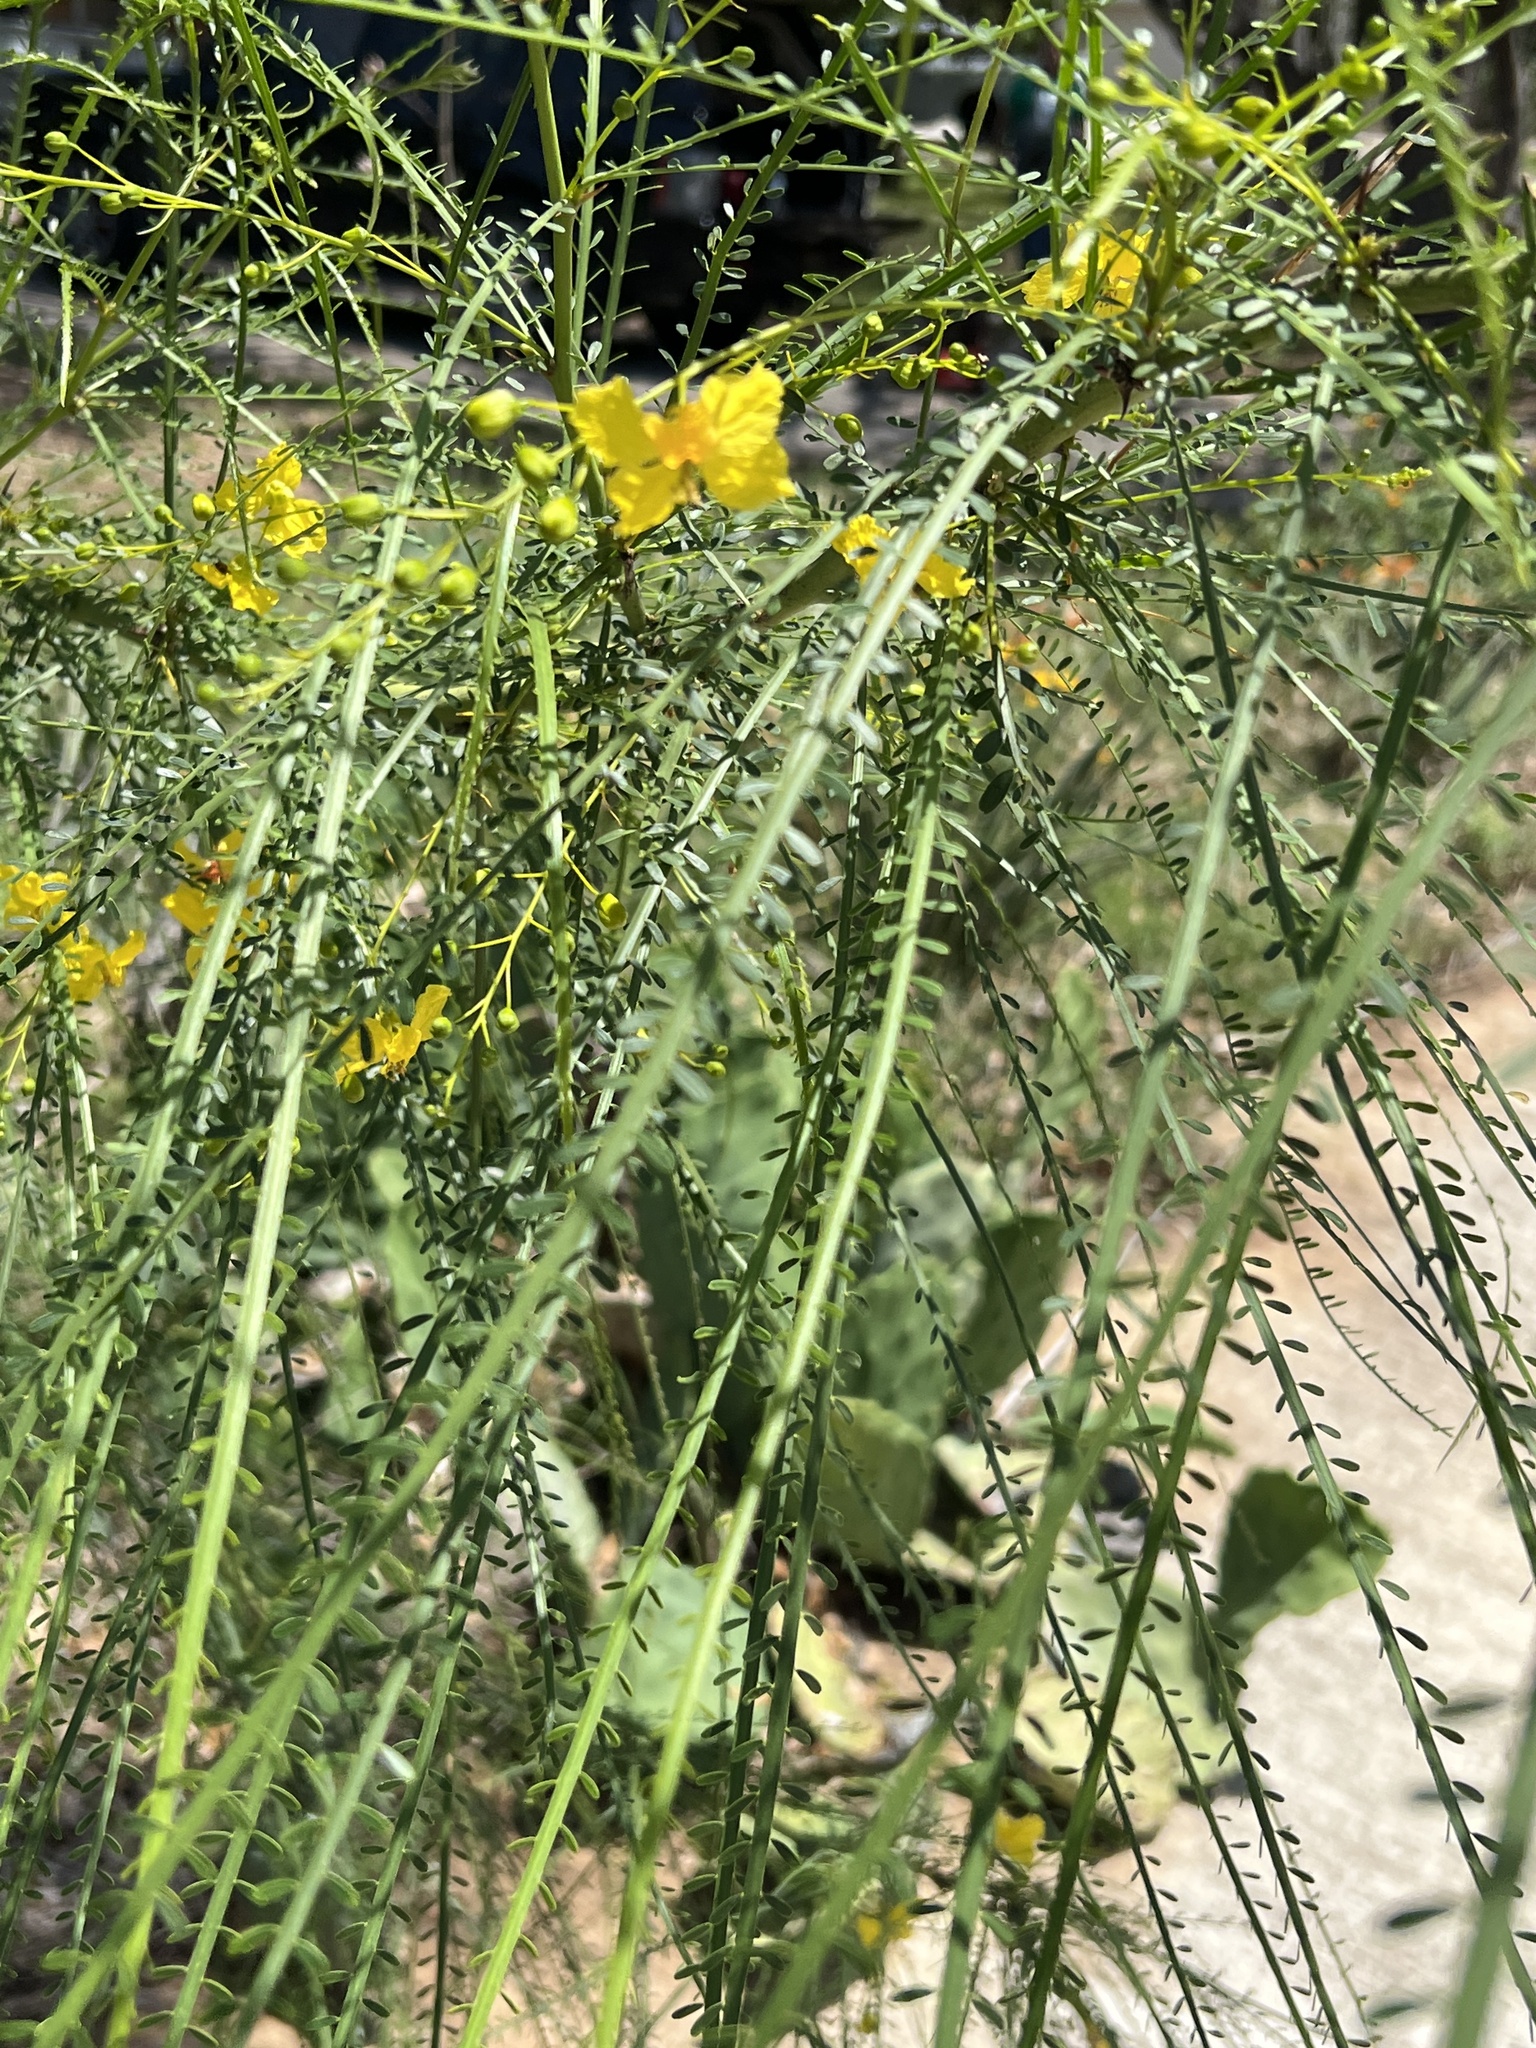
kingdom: Plantae
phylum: Tracheophyta
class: Magnoliopsida
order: Fabales
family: Fabaceae
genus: Parkinsonia
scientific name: Parkinsonia aculeata
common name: Jerusalem thorn
